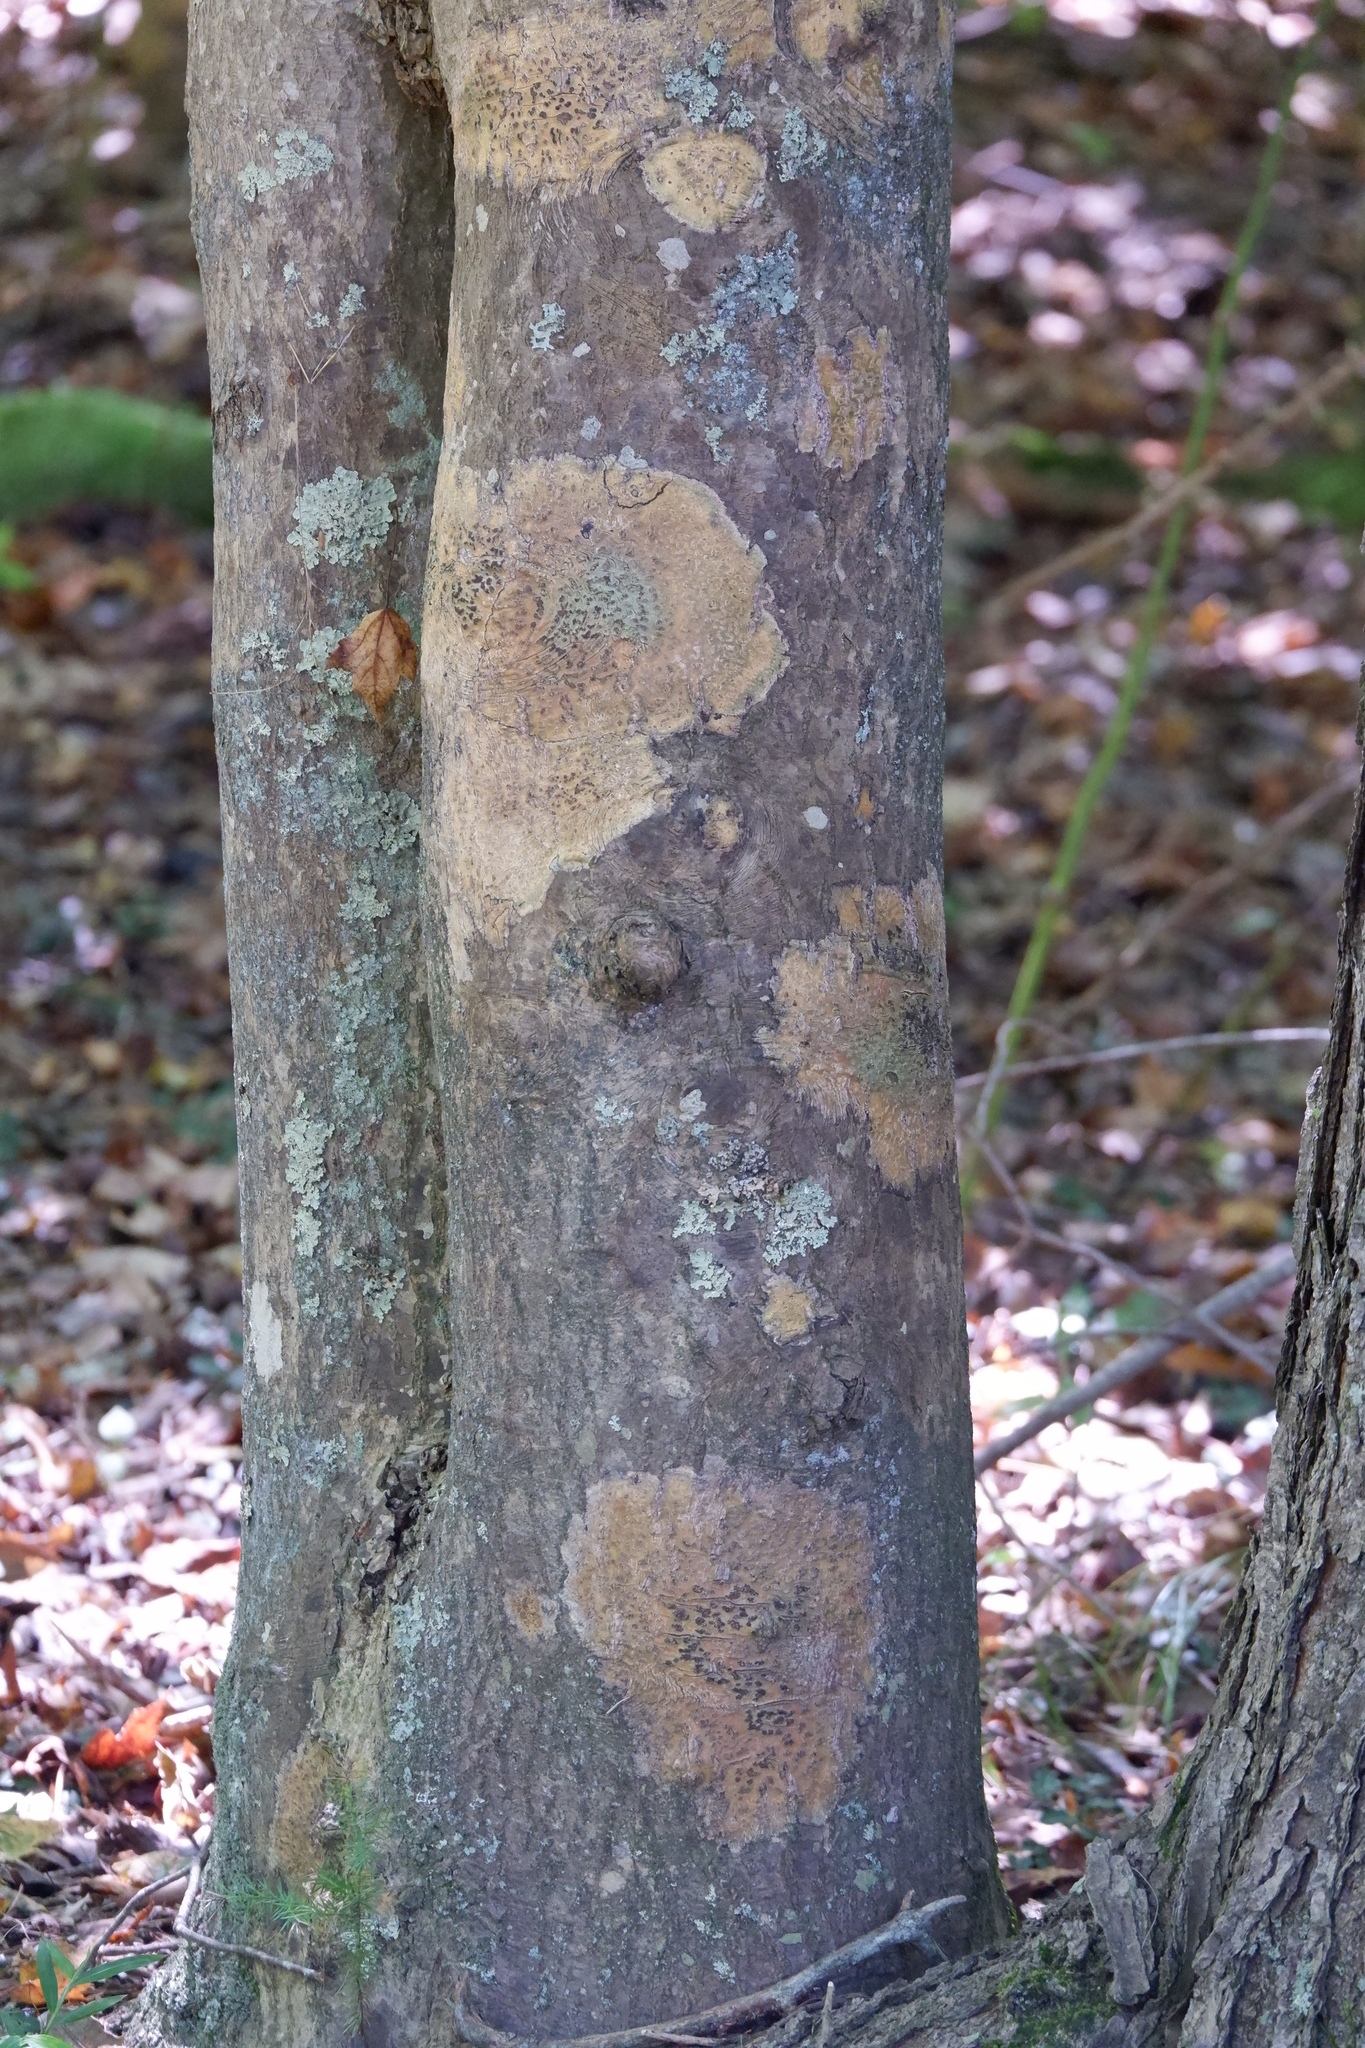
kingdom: Fungi
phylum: Ascomycota
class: Dothideomycetes
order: Trypetheliales
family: Trypetheliaceae
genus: Viridothelium
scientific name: Viridothelium virens
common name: Speckled blister lichen
